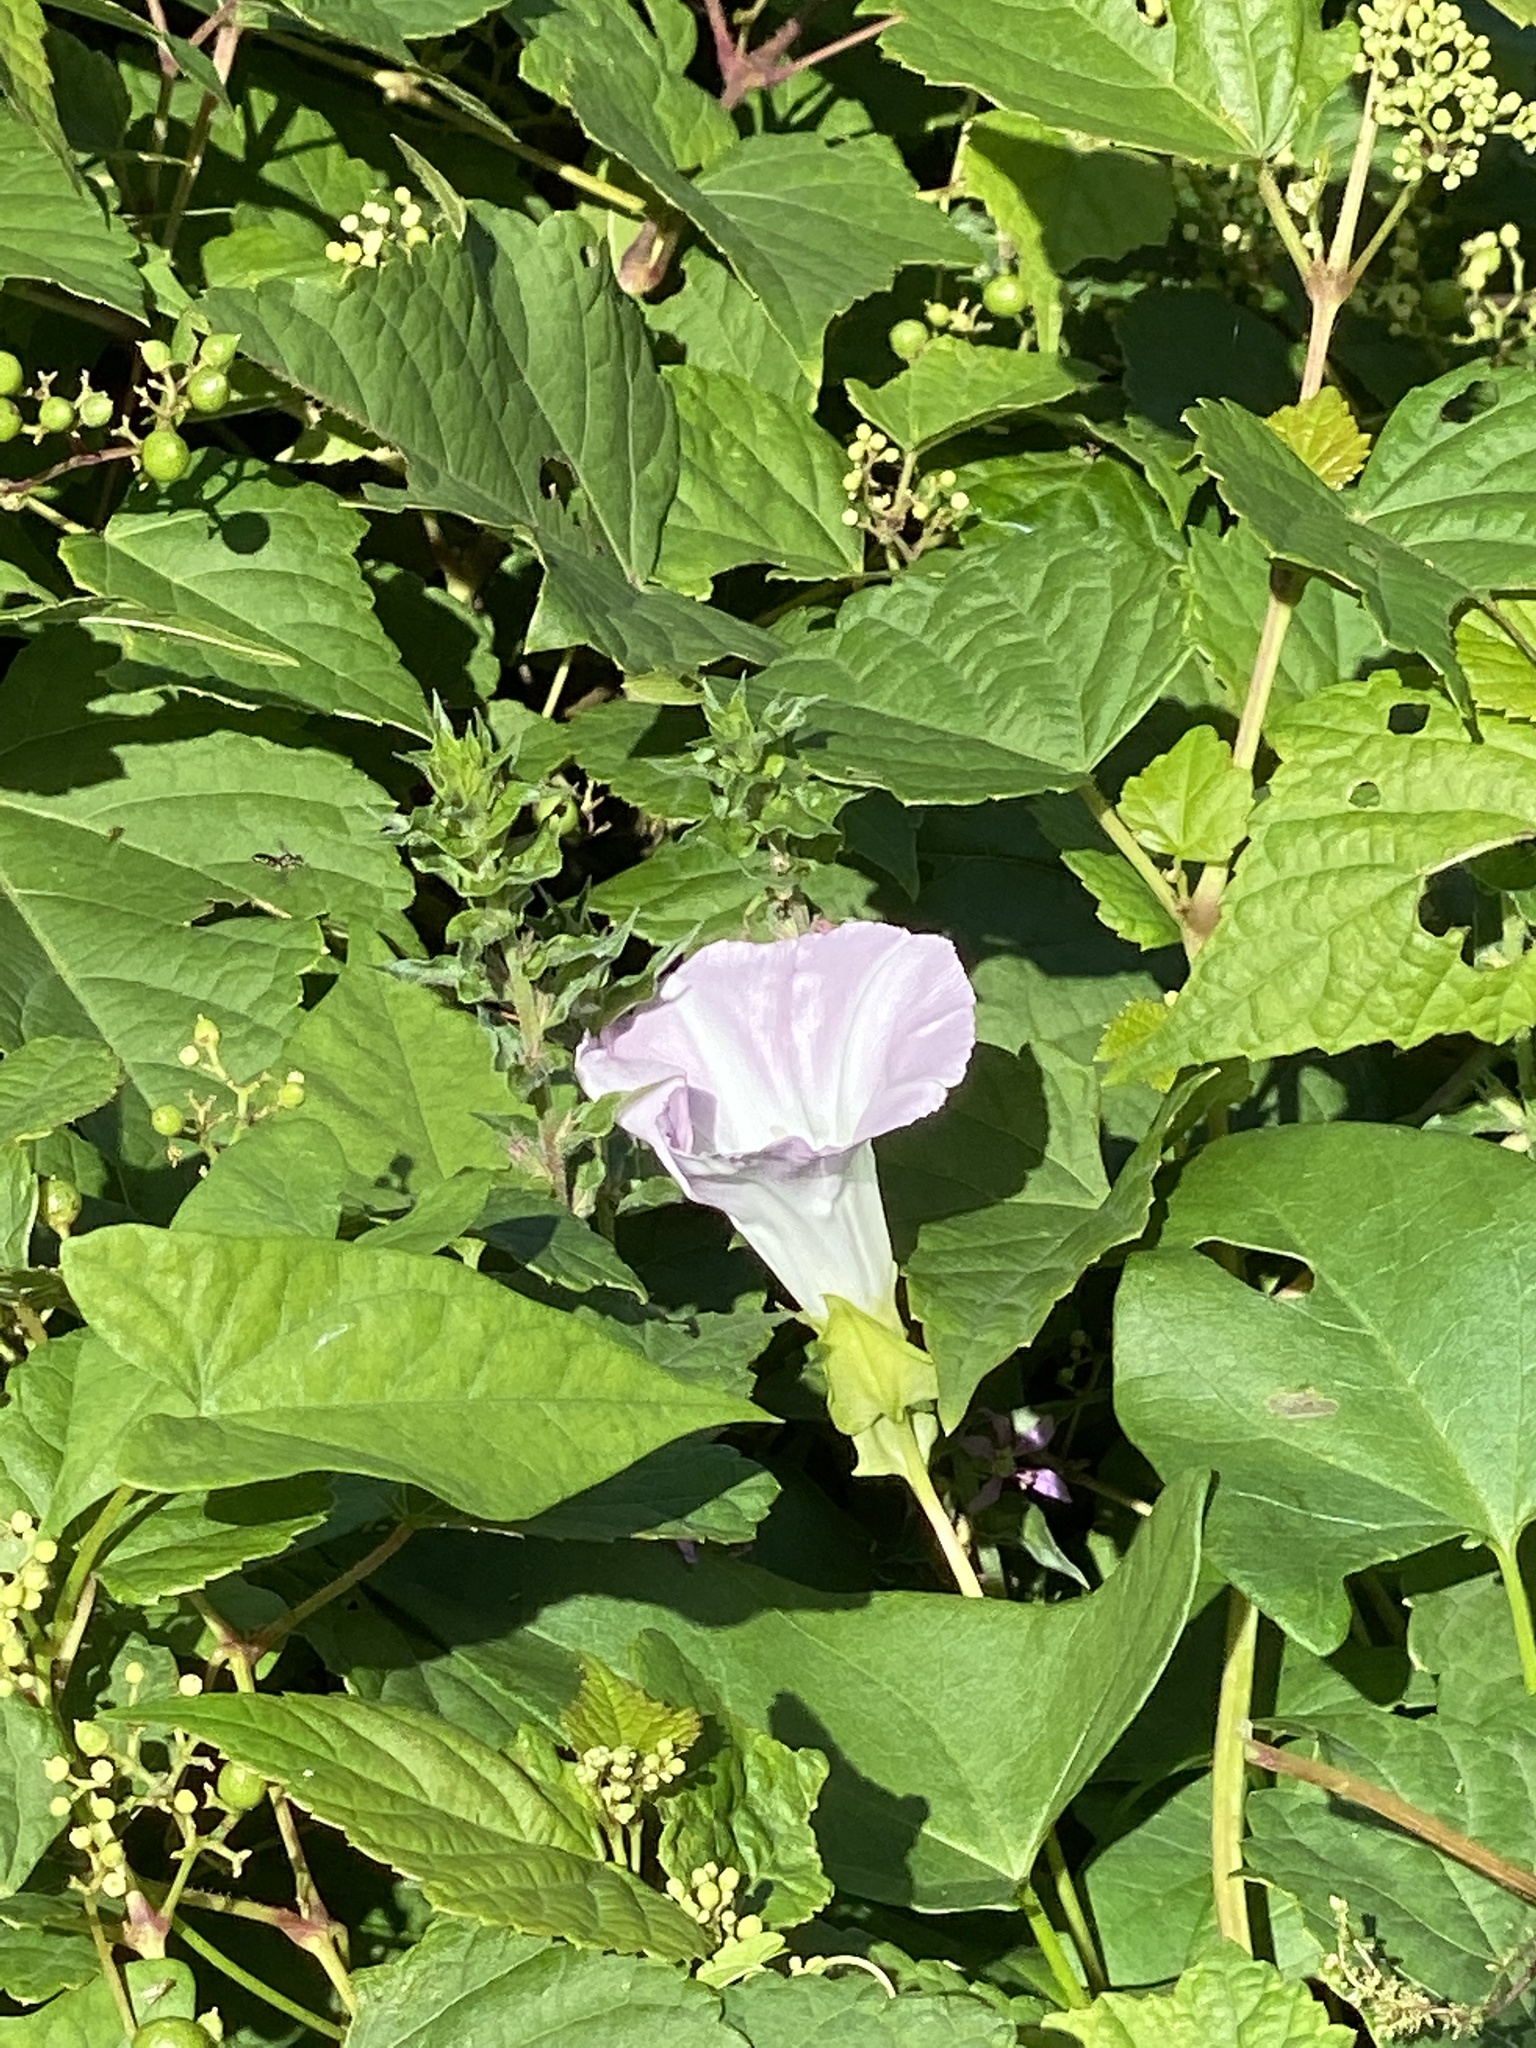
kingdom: Plantae
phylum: Tracheophyta
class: Magnoliopsida
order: Solanales
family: Convolvulaceae
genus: Calystegia
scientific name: Calystegia sepium
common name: Hedge bindweed
